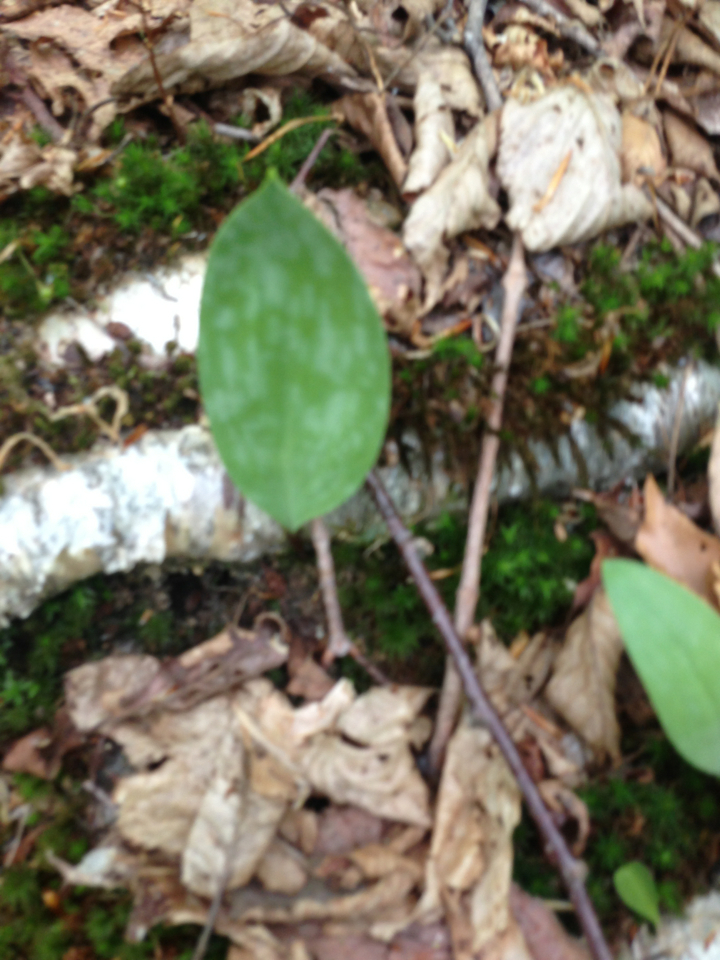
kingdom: Plantae
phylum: Tracheophyta
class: Liliopsida
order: Liliales
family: Liliaceae
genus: Erythronium
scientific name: Erythronium americanum
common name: Yellow adder's-tongue
